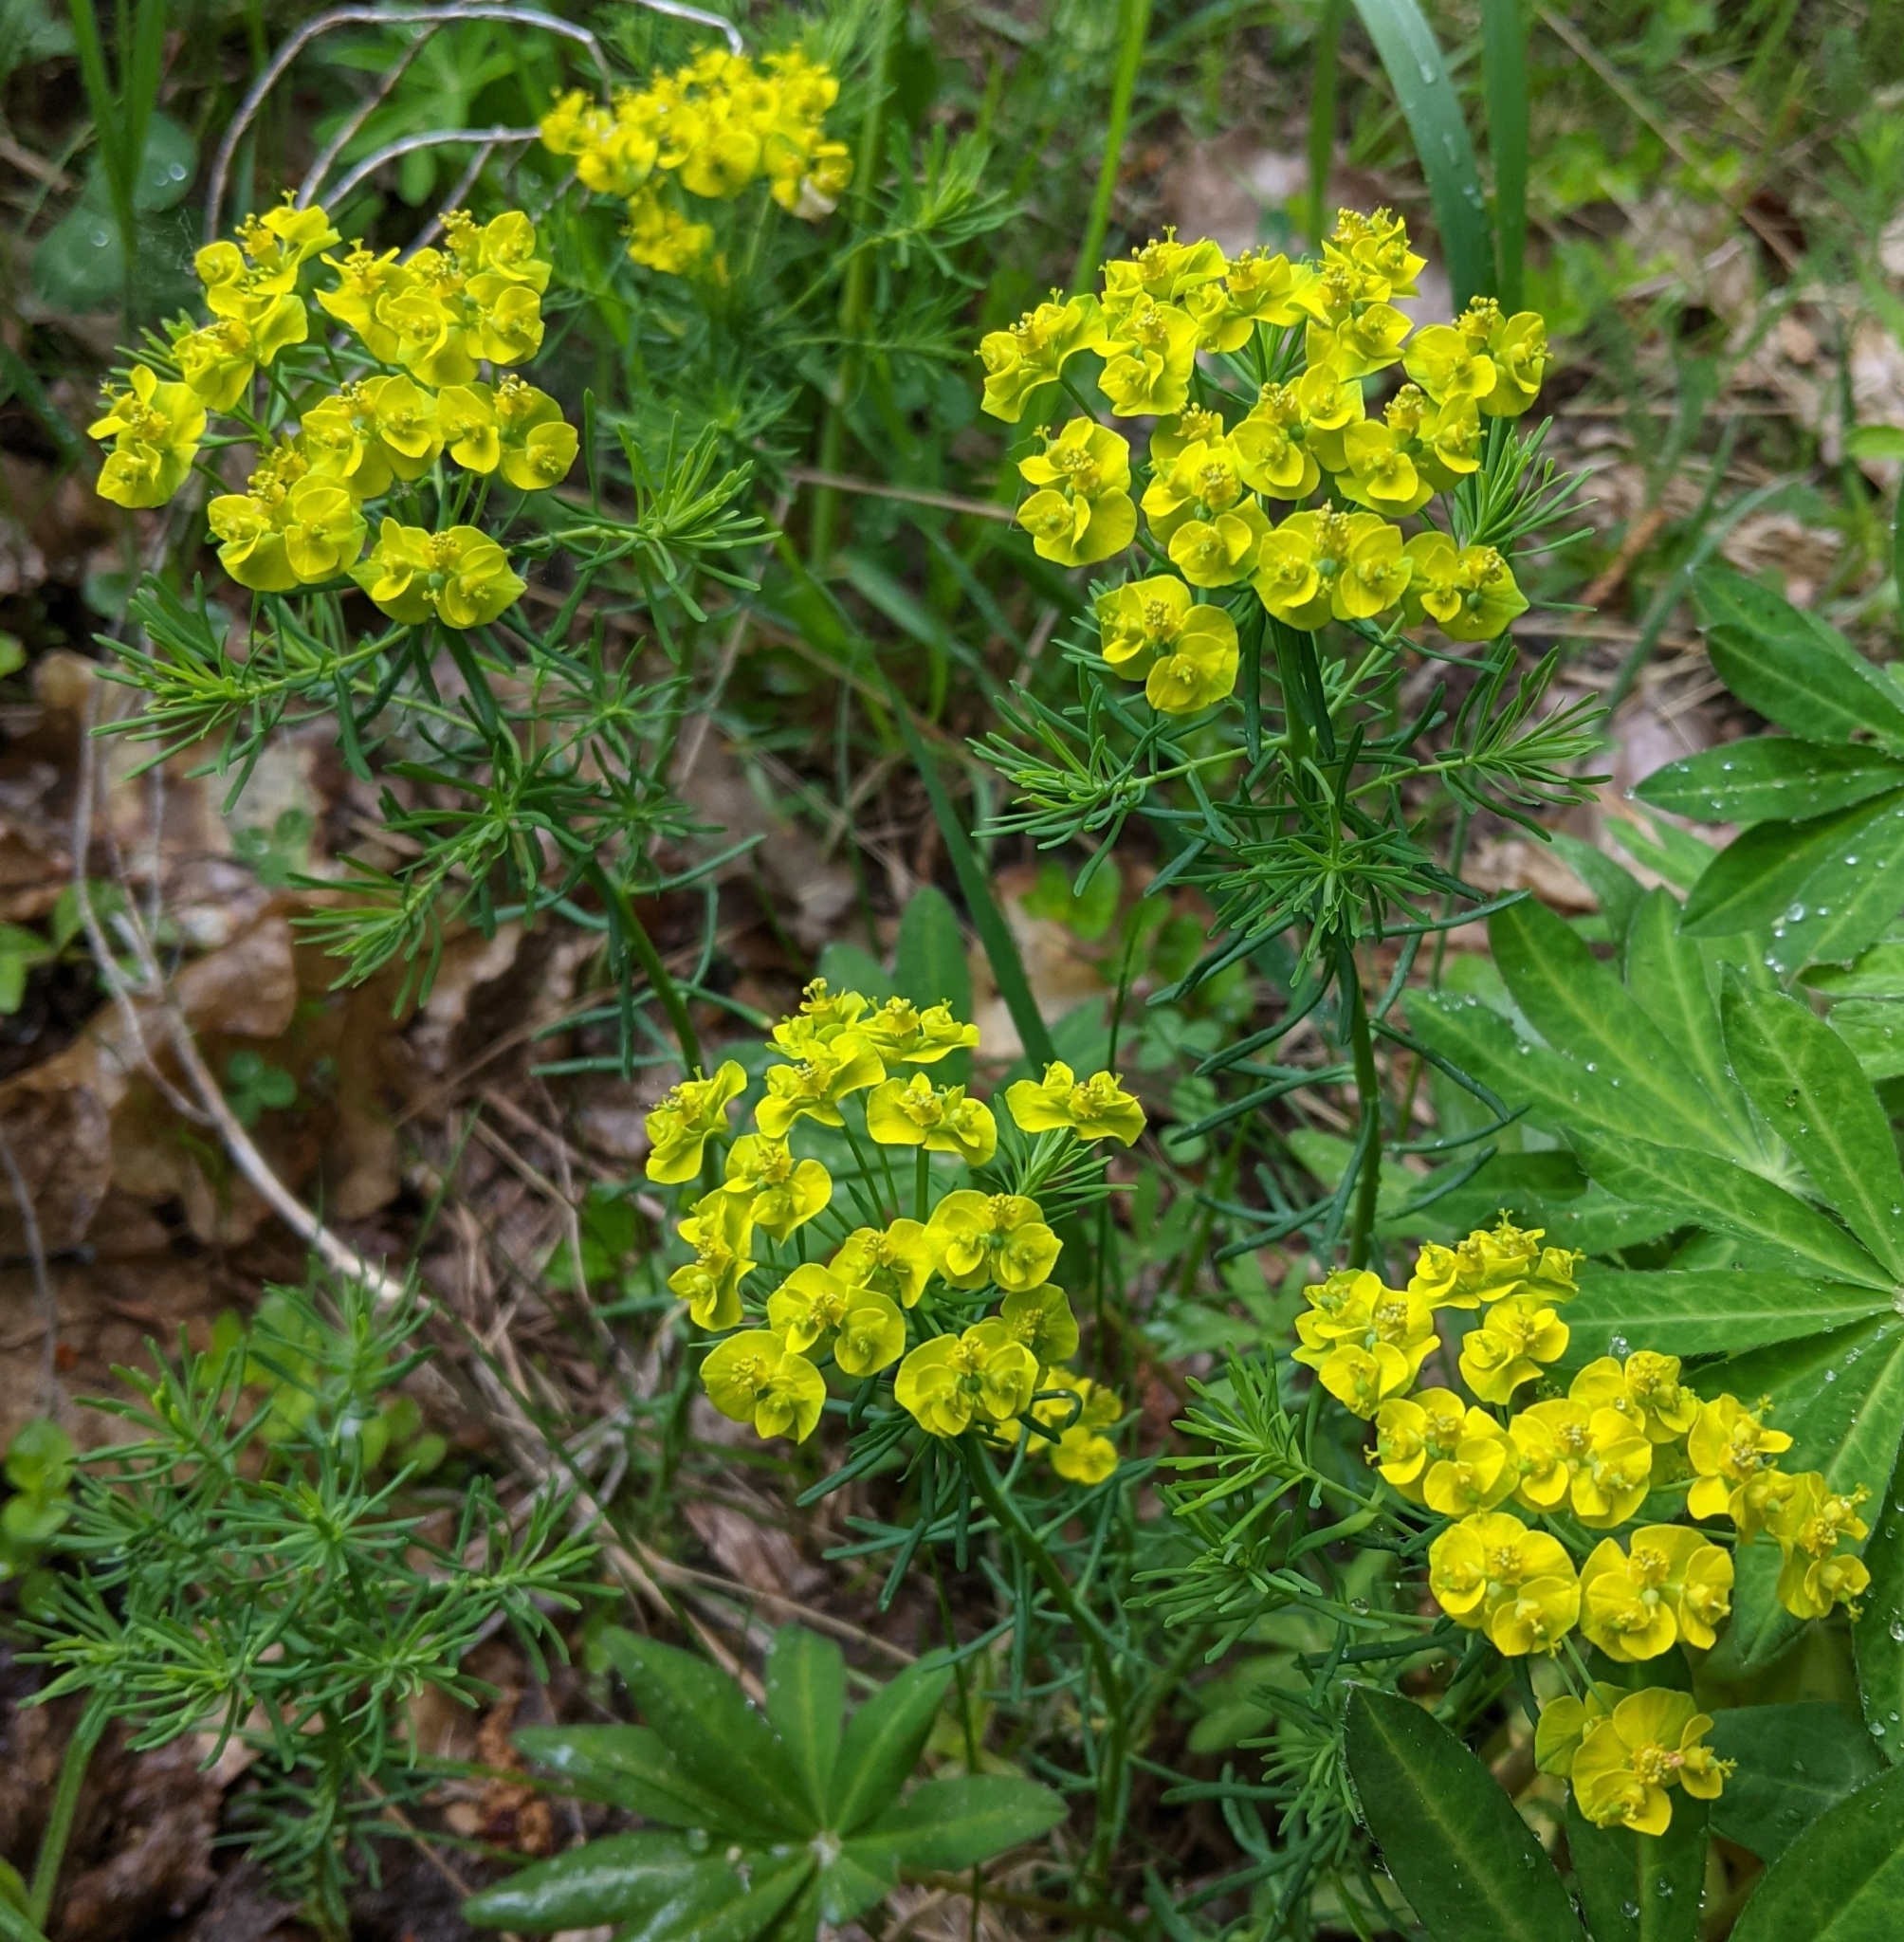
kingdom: Plantae
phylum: Tracheophyta
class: Magnoliopsida
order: Malpighiales
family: Euphorbiaceae
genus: Euphorbia
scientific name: Euphorbia cyparissias
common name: Cypress spurge
